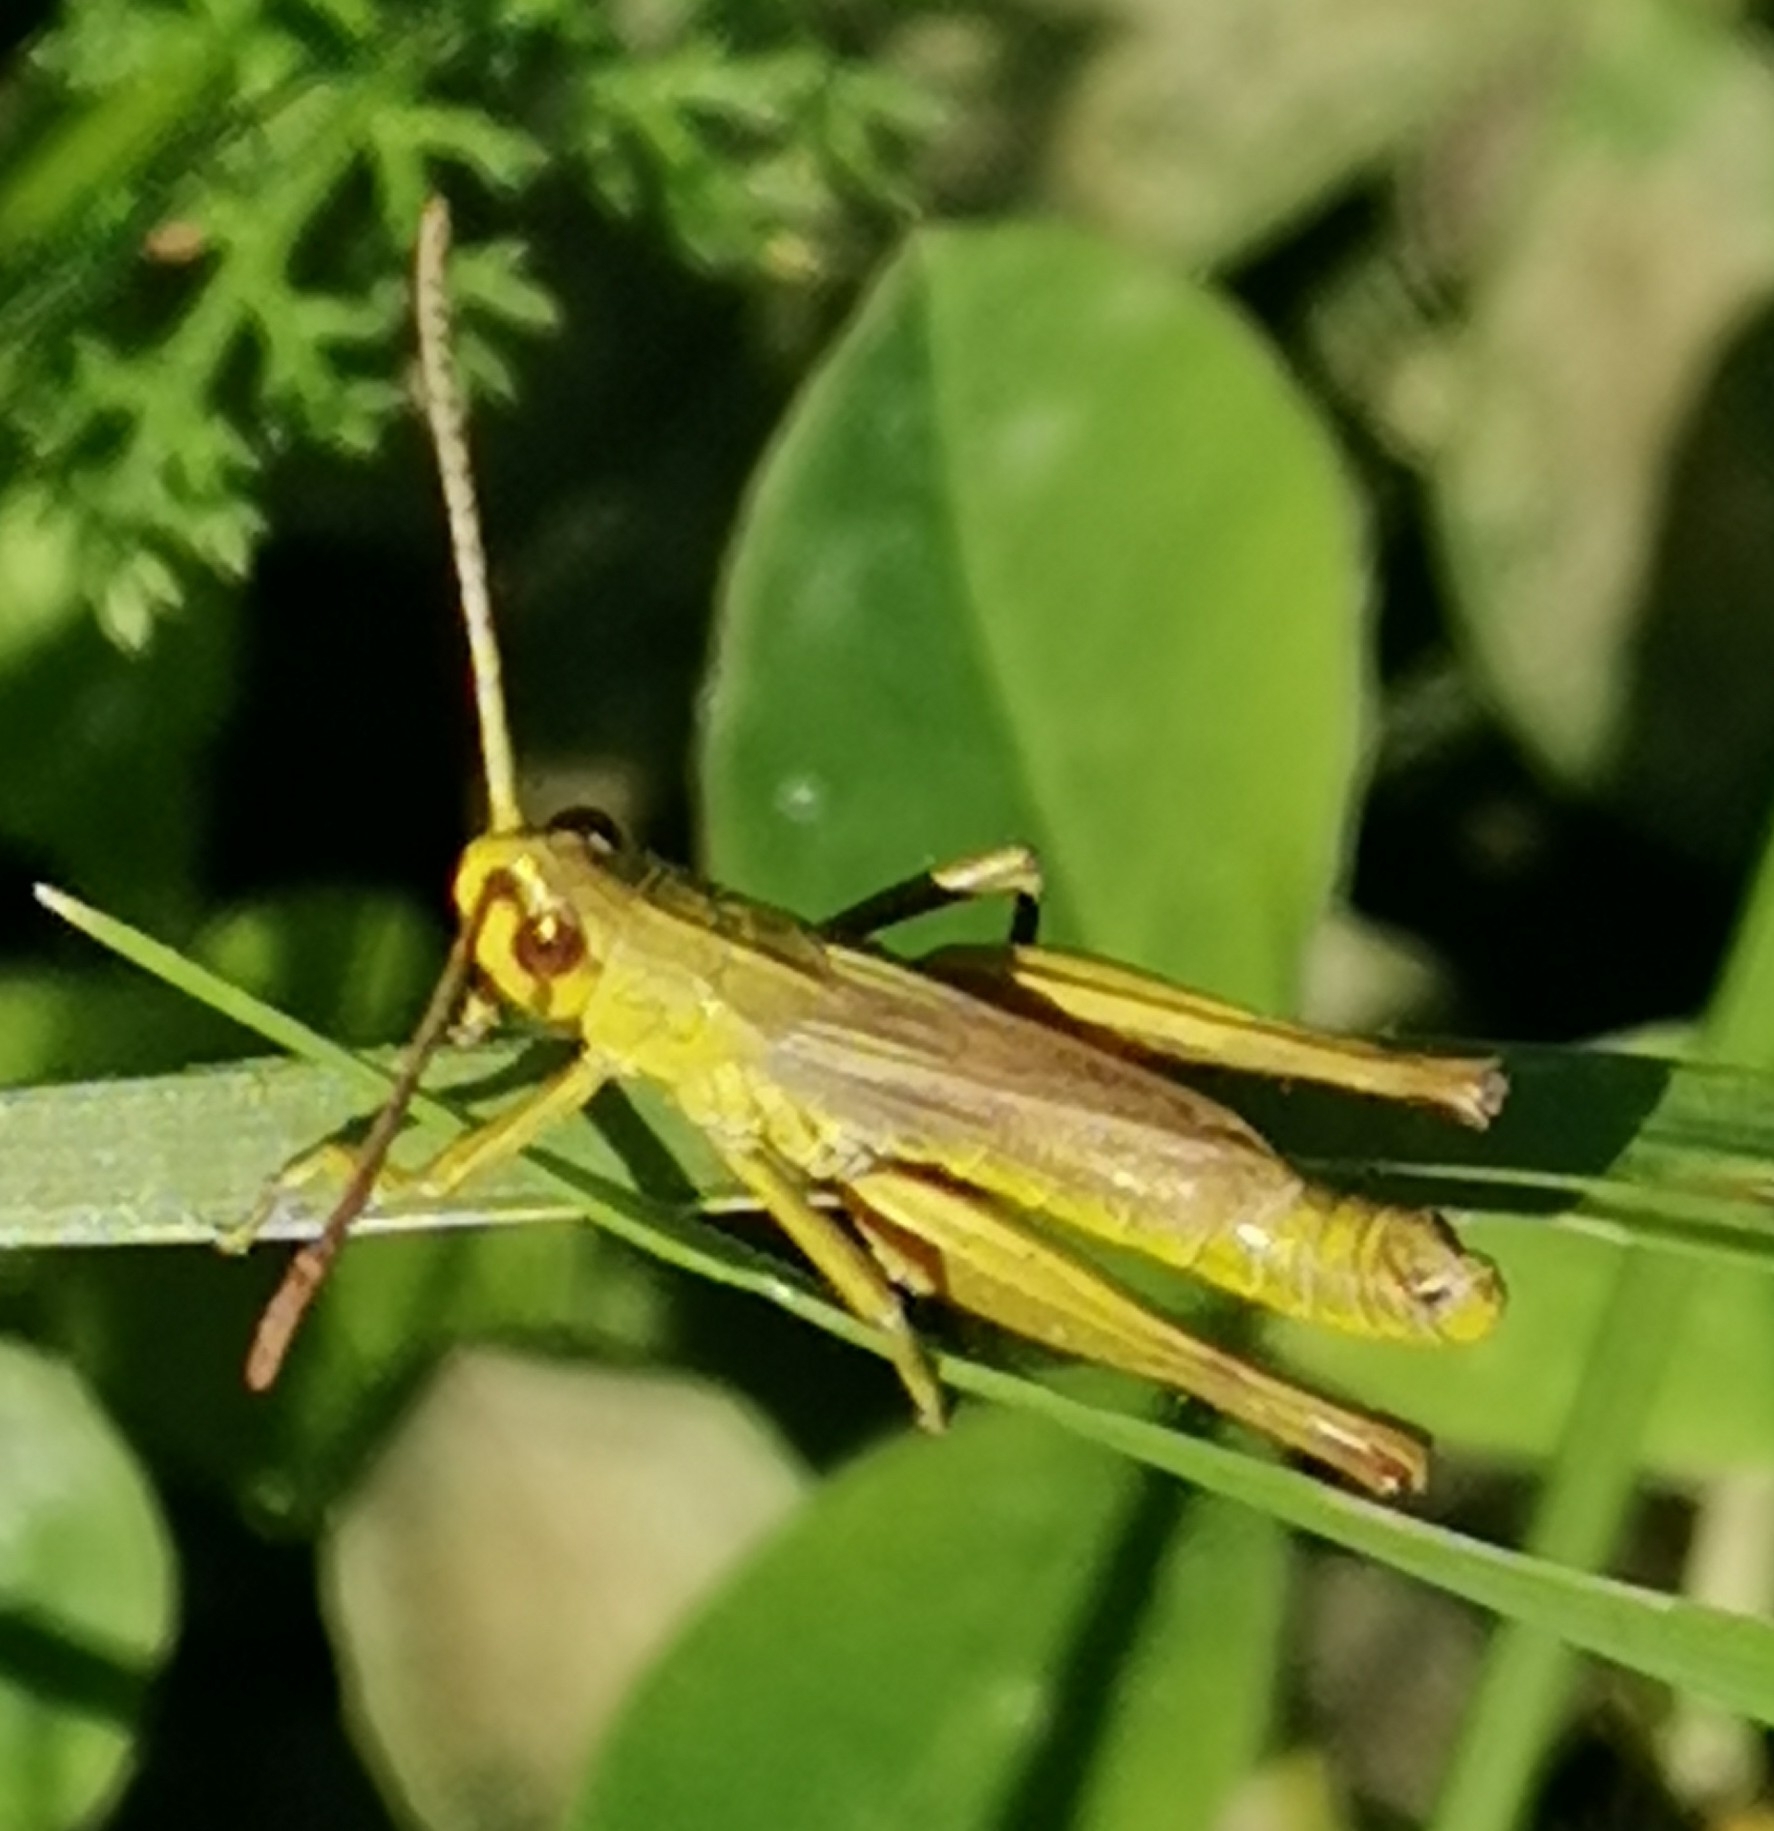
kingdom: Animalia
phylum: Arthropoda
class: Insecta
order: Orthoptera
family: Acrididae
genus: Pseudochorthippus
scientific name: Pseudochorthippus parallelus
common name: Meadow grasshopper
